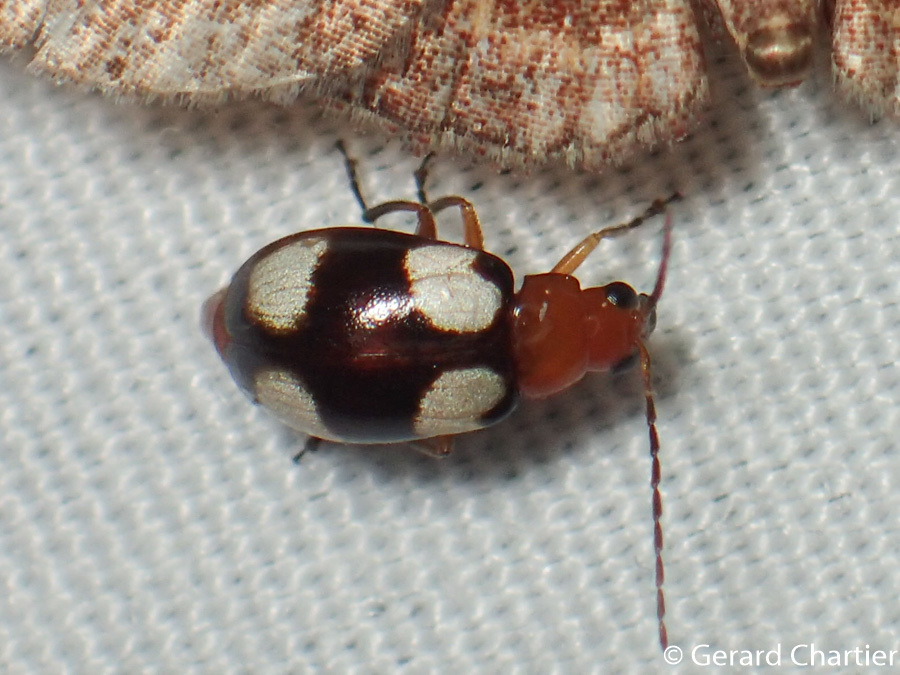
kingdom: Animalia
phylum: Arthropoda
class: Insecta
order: Coleoptera
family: Chrysomelidae
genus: Monolepta
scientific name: Monolepta signata
